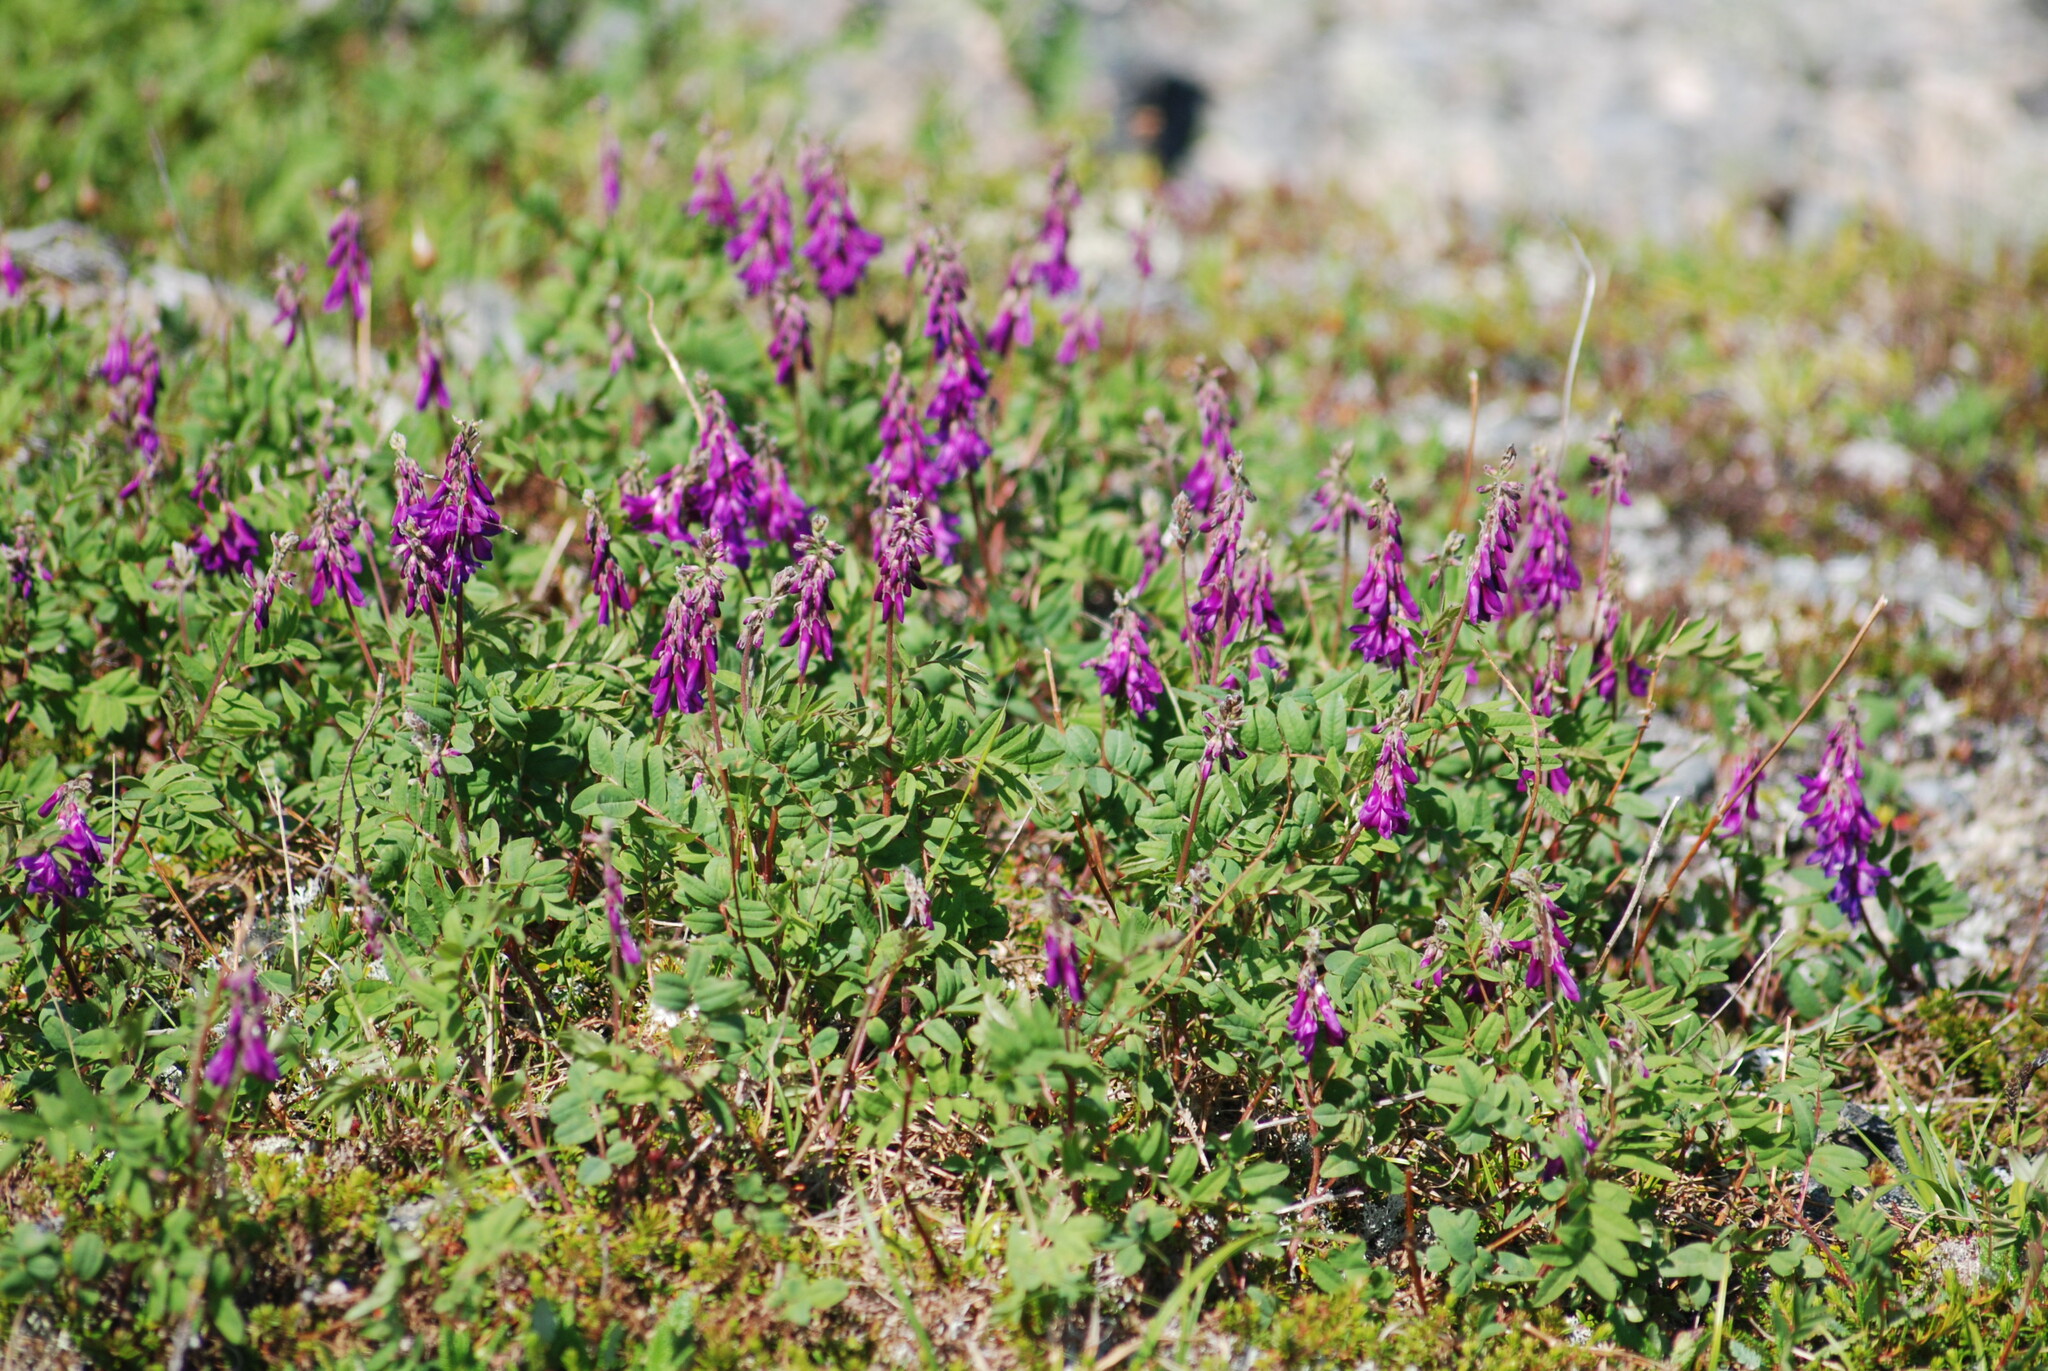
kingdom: Plantae
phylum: Tracheophyta
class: Magnoliopsida
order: Fabales
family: Fabaceae
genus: Hedysarum
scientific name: Hedysarum hedysaroides
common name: Alpine french-honeysuckle
